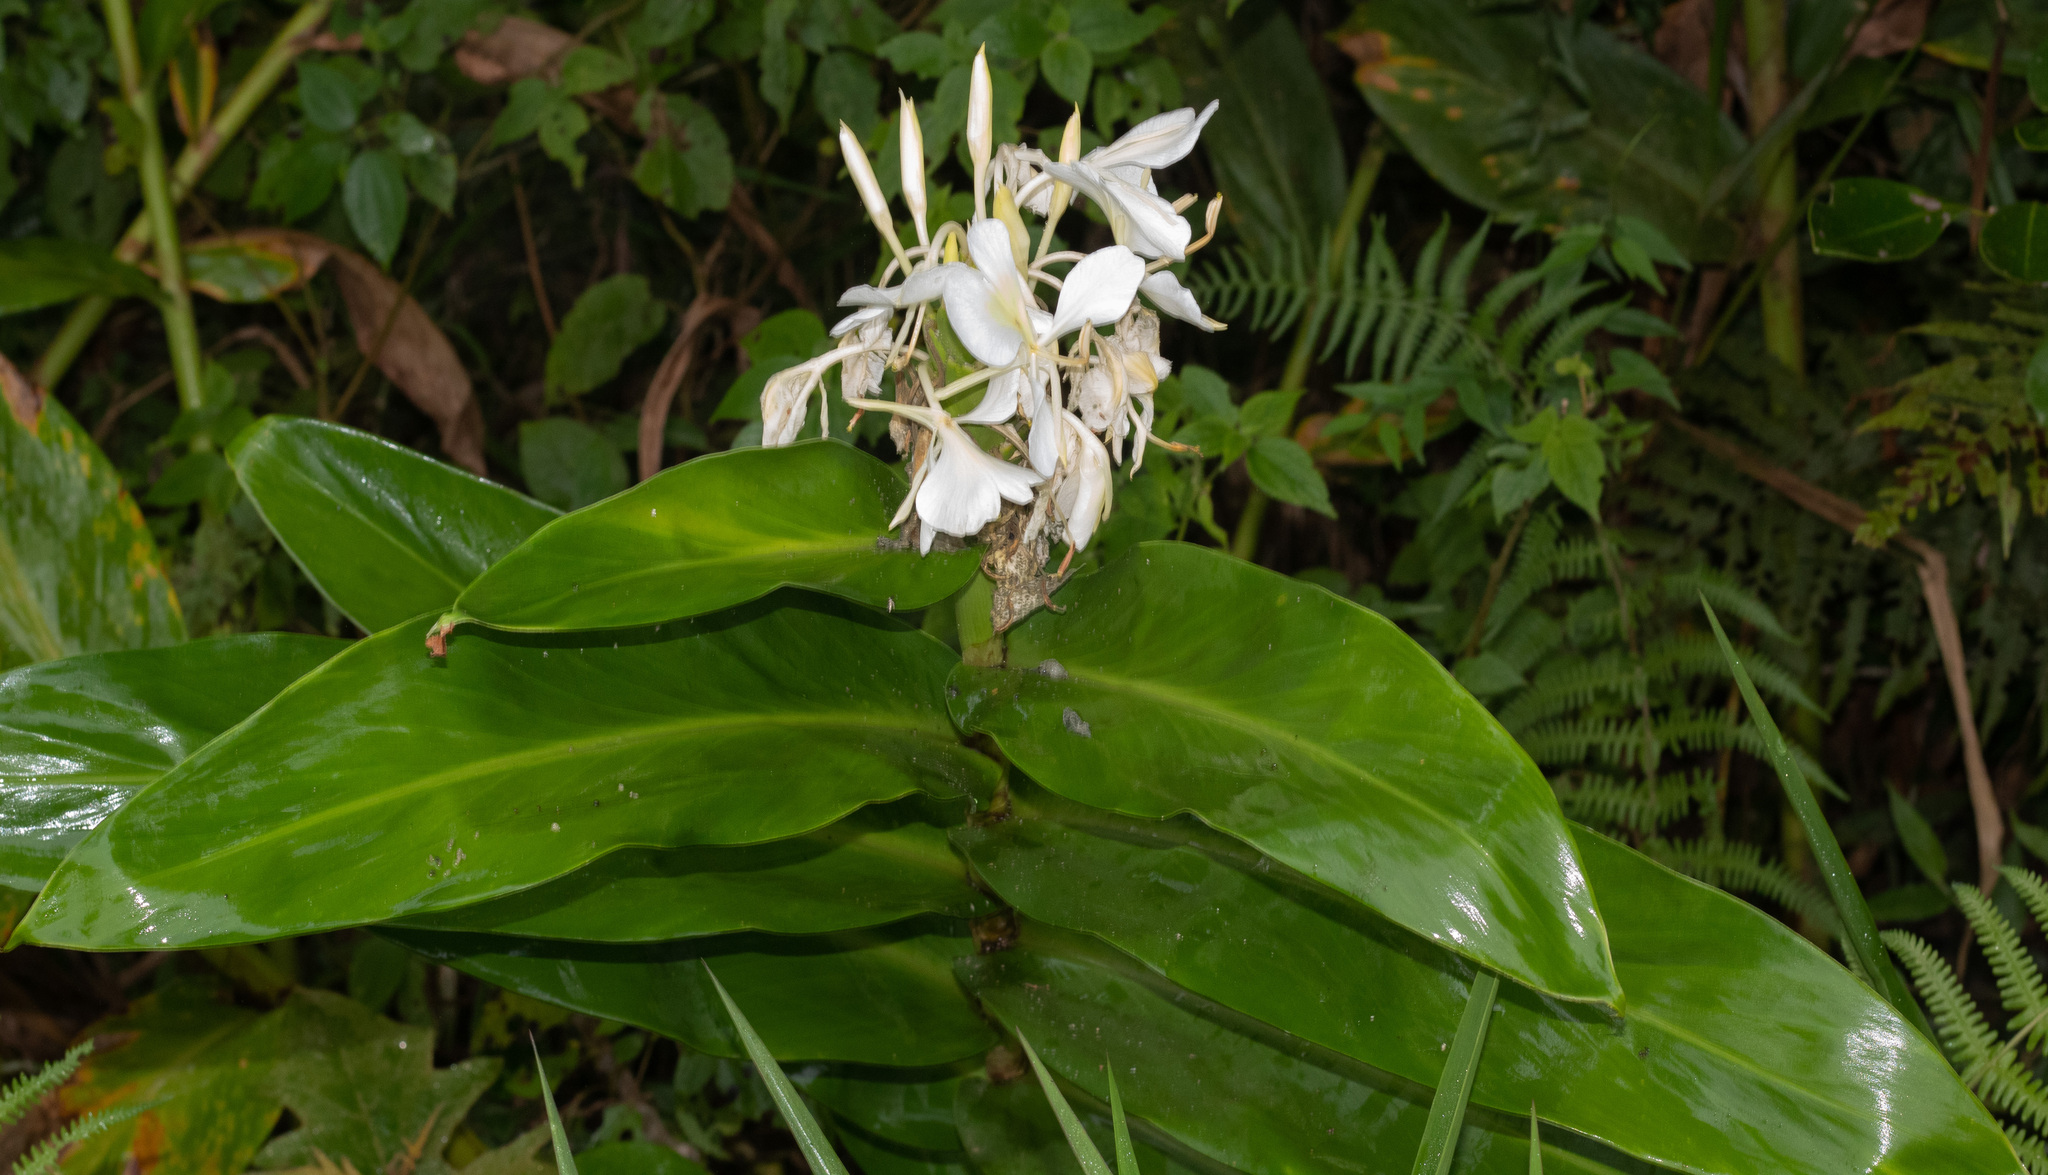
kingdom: Plantae
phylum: Tracheophyta
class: Liliopsida
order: Zingiberales
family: Zingiberaceae
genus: Hedychium
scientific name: Hedychium coronarium
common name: White garland-lily
